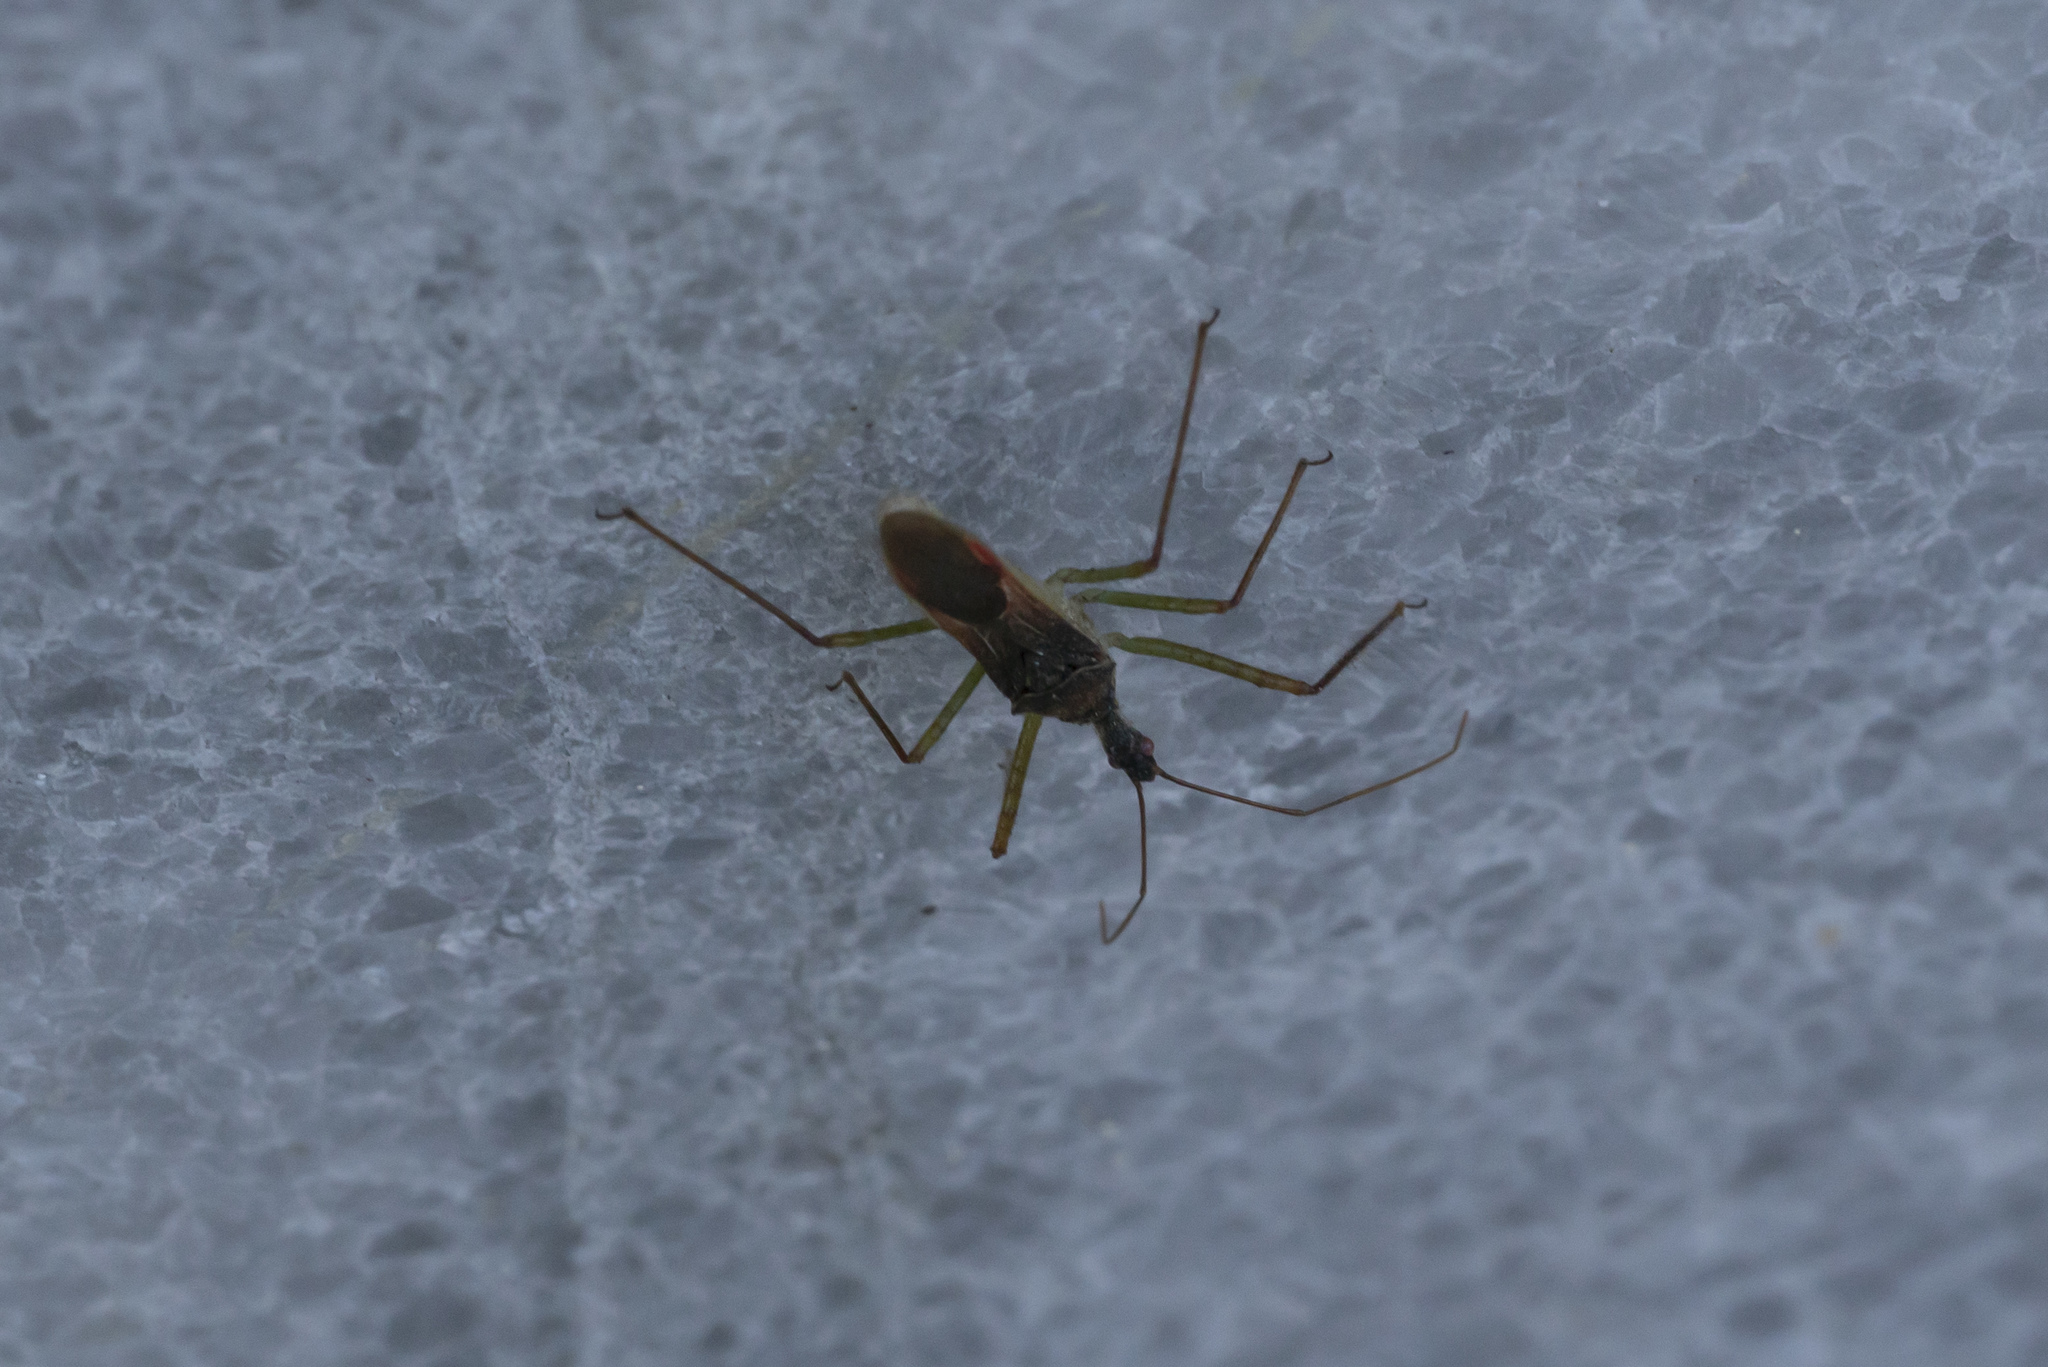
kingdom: Animalia
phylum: Arthropoda
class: Insecta
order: Hemiptera
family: Reduviidae
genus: Zelus
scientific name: Zelus renardii
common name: Assassin bug
